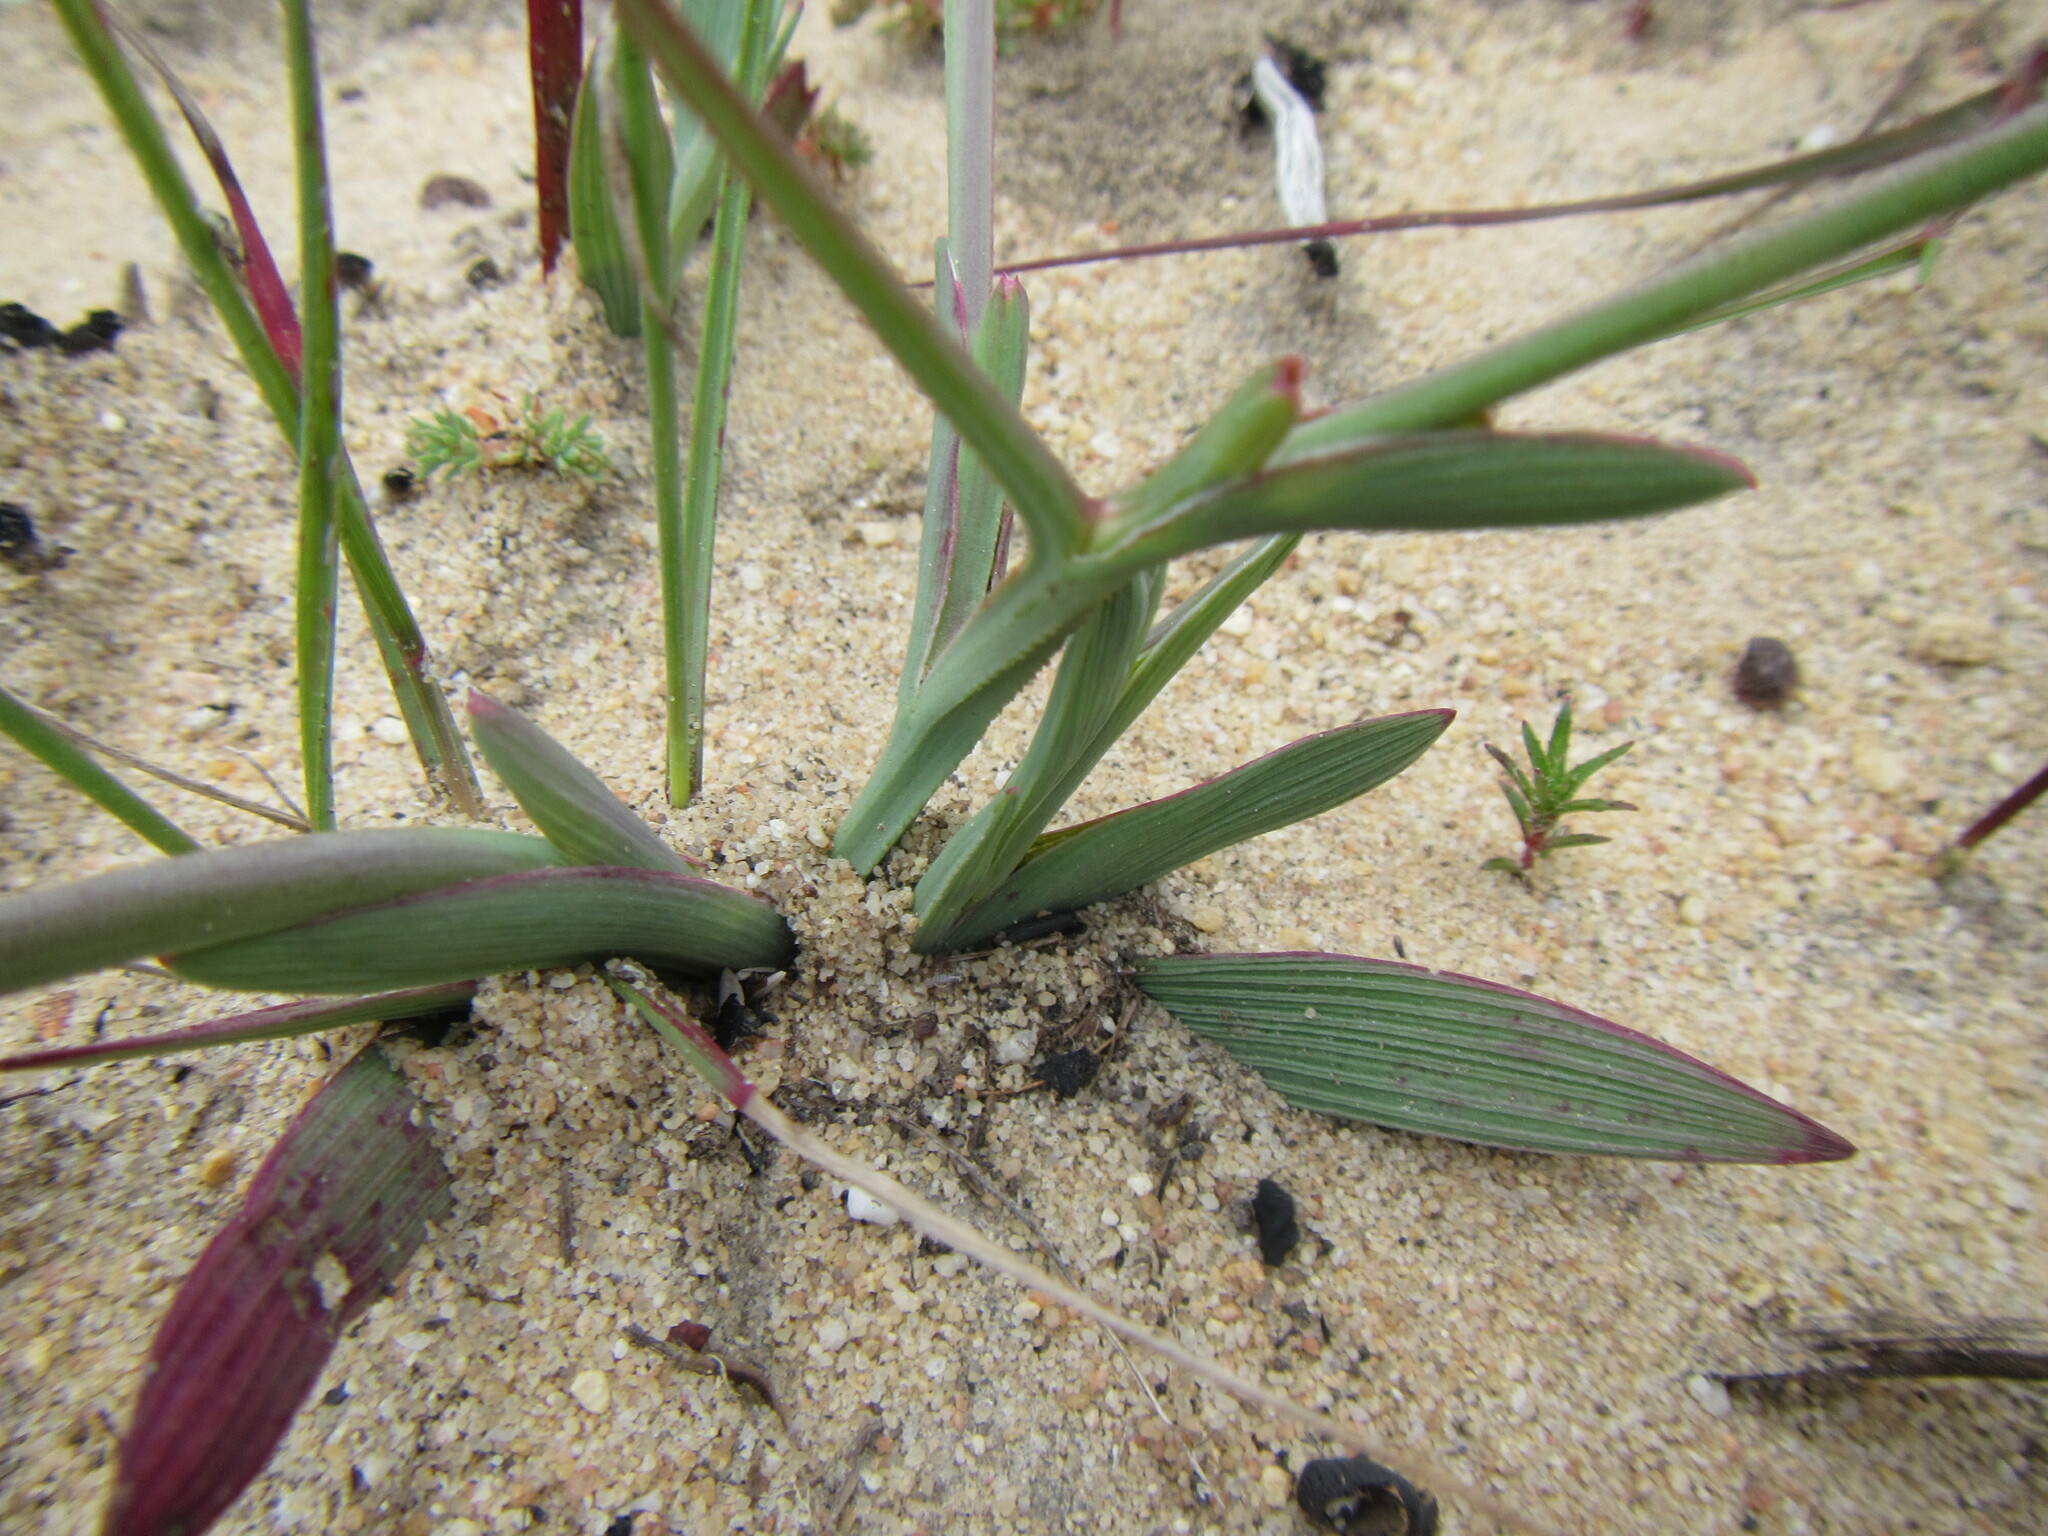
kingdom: Plantae
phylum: Tracheophyta
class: Liliopsida
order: Asparagales
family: Iridaceae
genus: Lapeirousia
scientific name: Lapeirousia anceps
